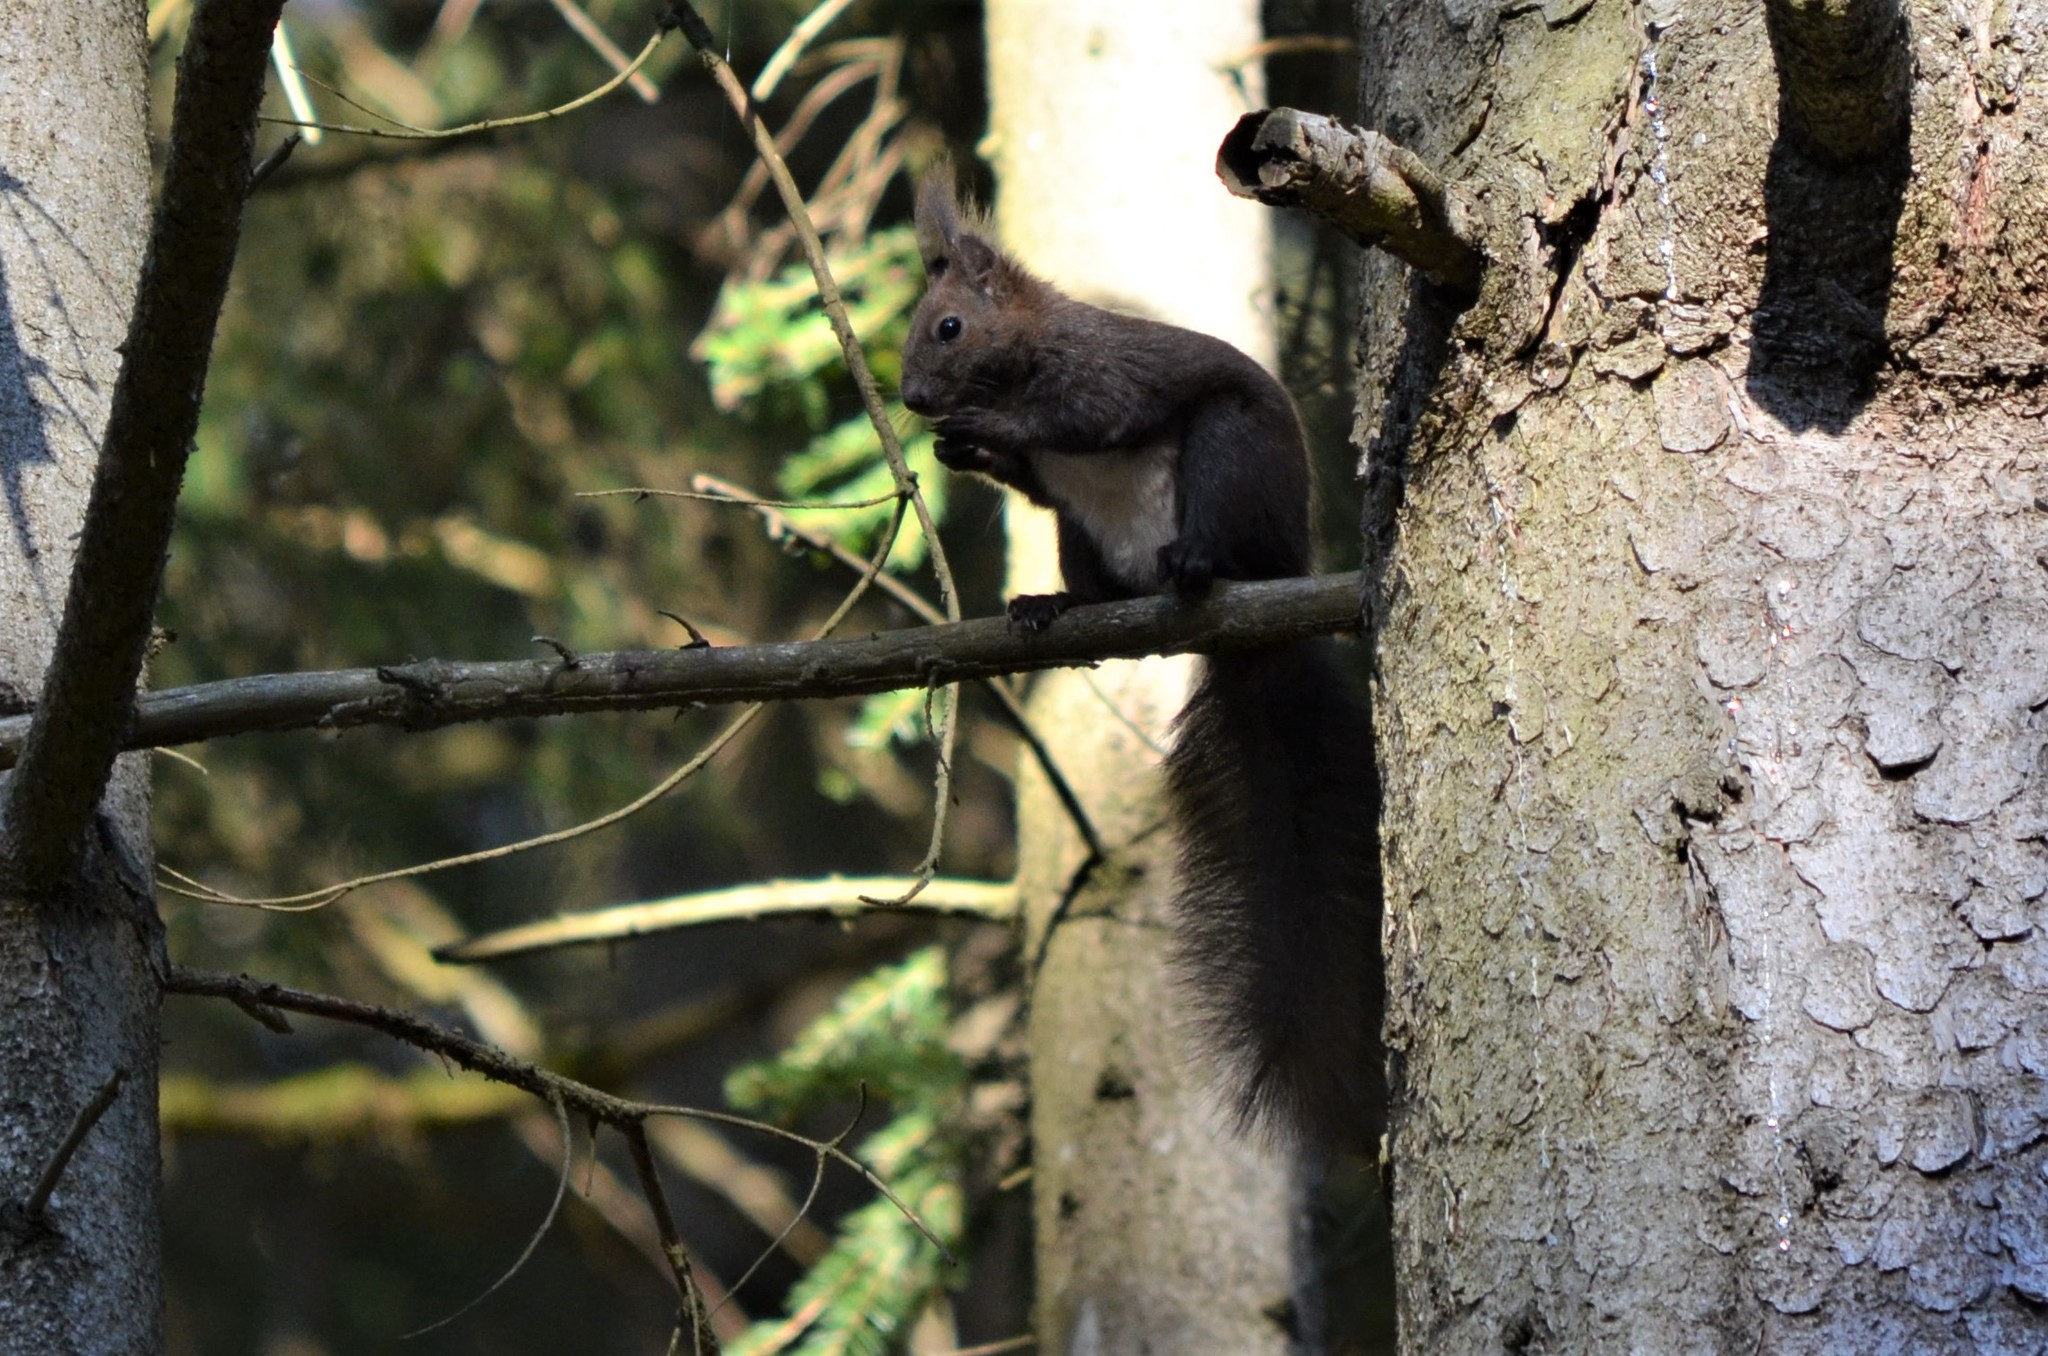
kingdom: Animalia
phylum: Chordata
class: Mammalia
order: Rodentia
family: Sciuridae
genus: Sciurus
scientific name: Sciurus vulgaris
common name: Eurasian red squirrel
